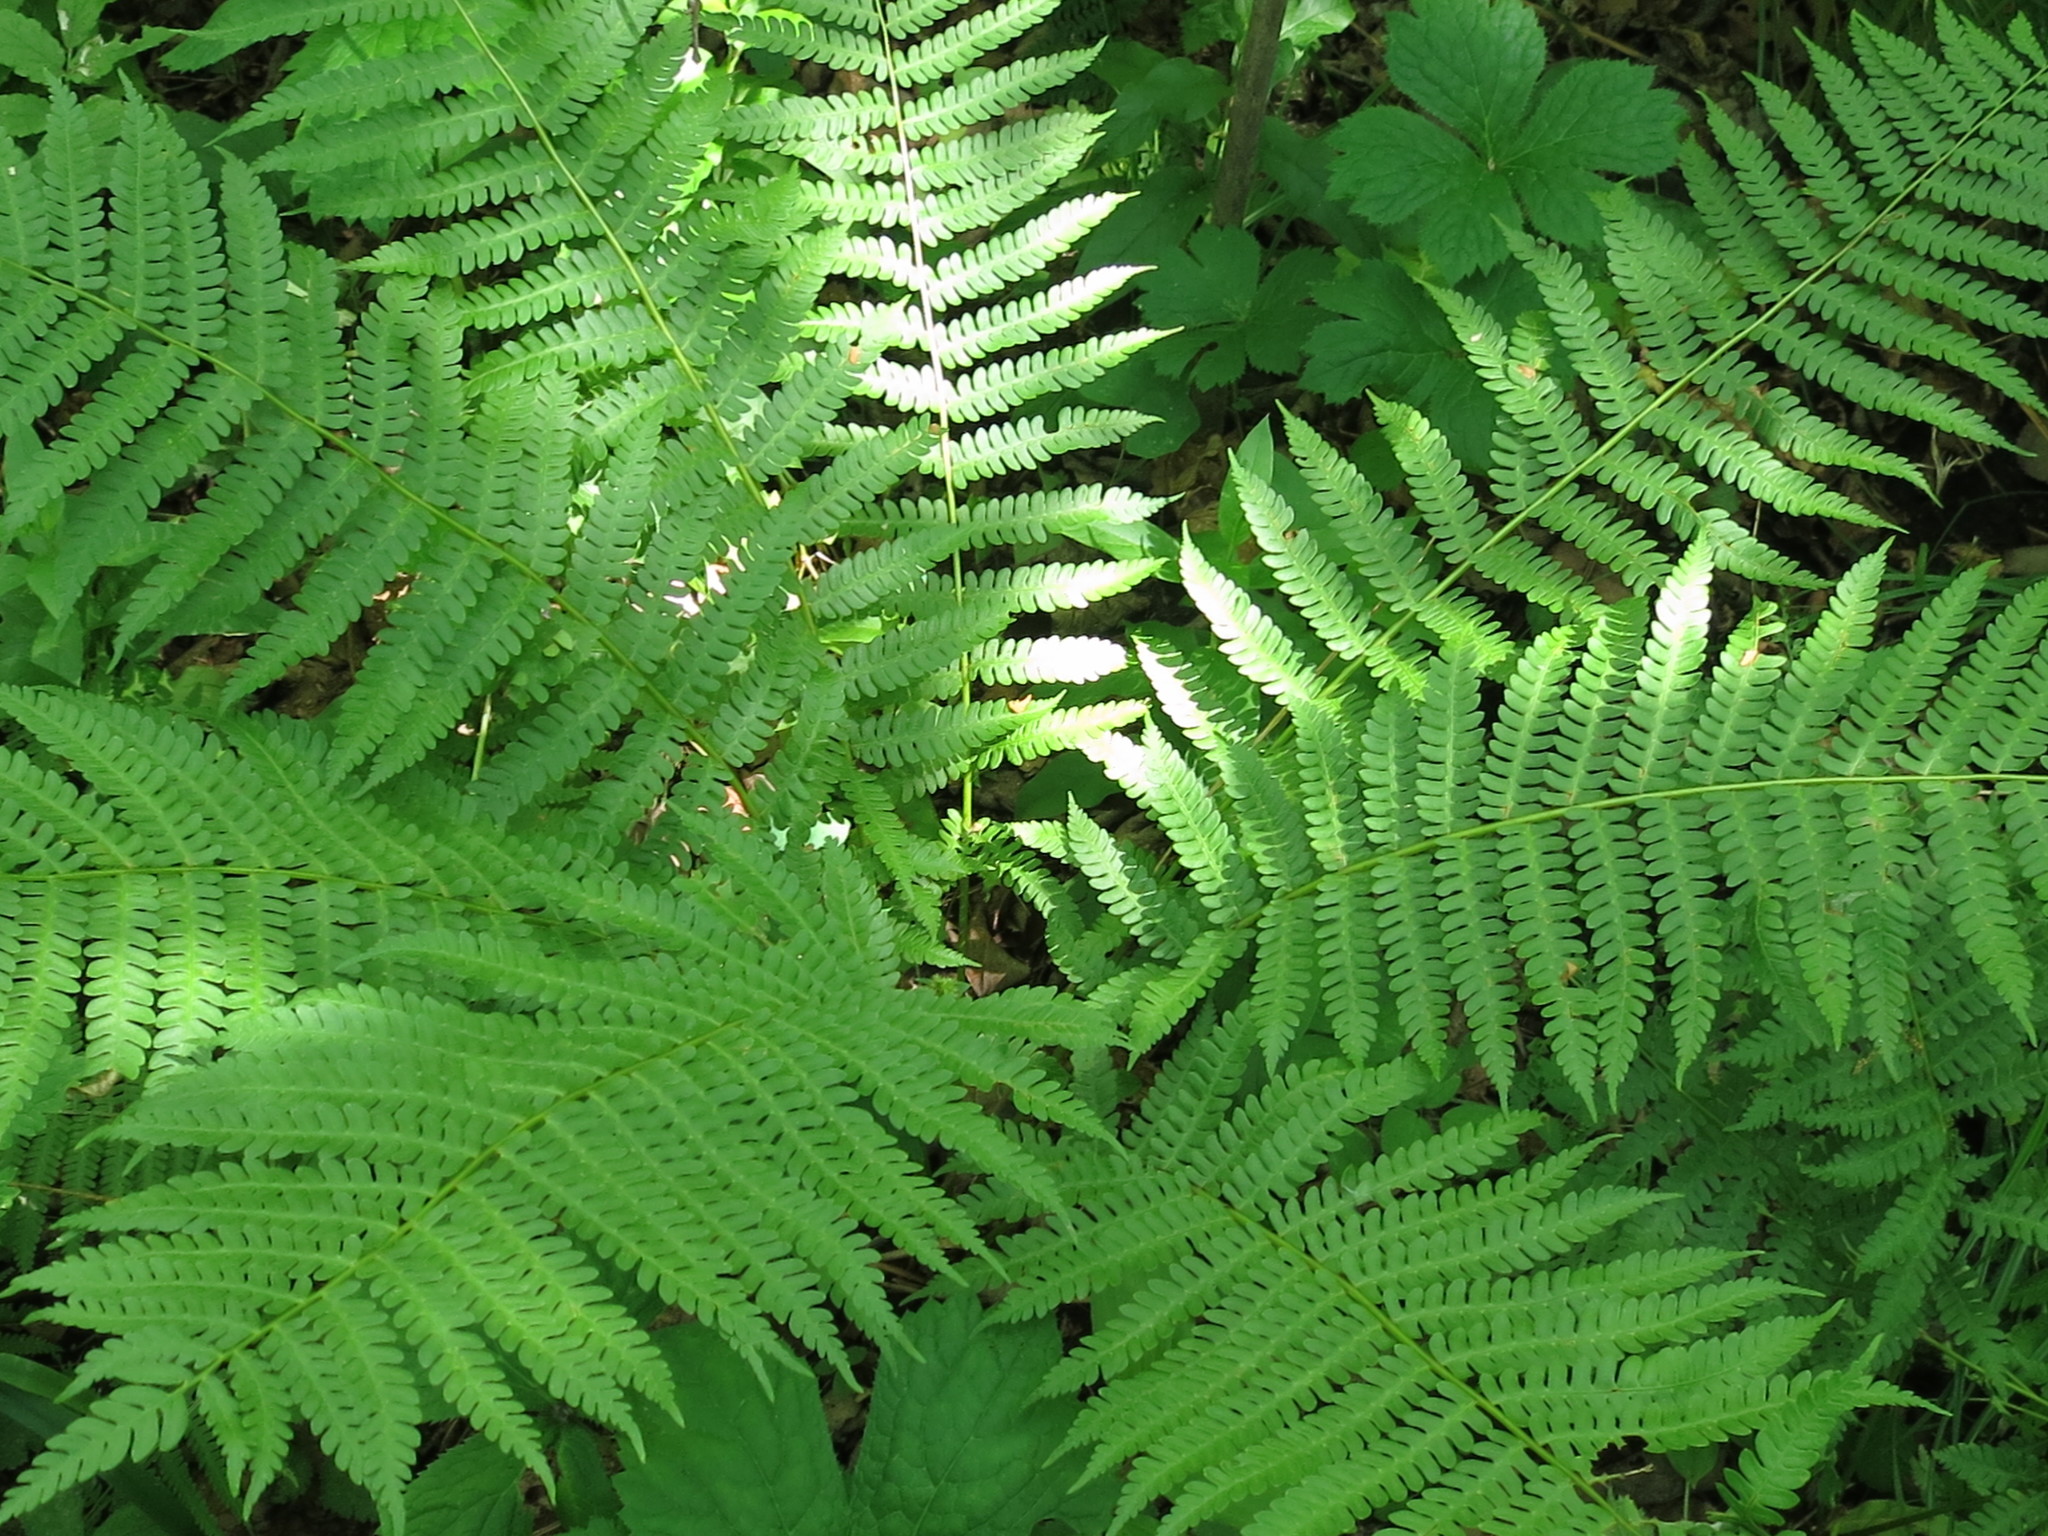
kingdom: Plantae
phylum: Tracheophyta
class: Polypodiopsida
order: Osmundales
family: Osmundaceae
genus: Osmundastrum
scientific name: Osmundastrum cinnamomeum
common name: Cinnamon fern
